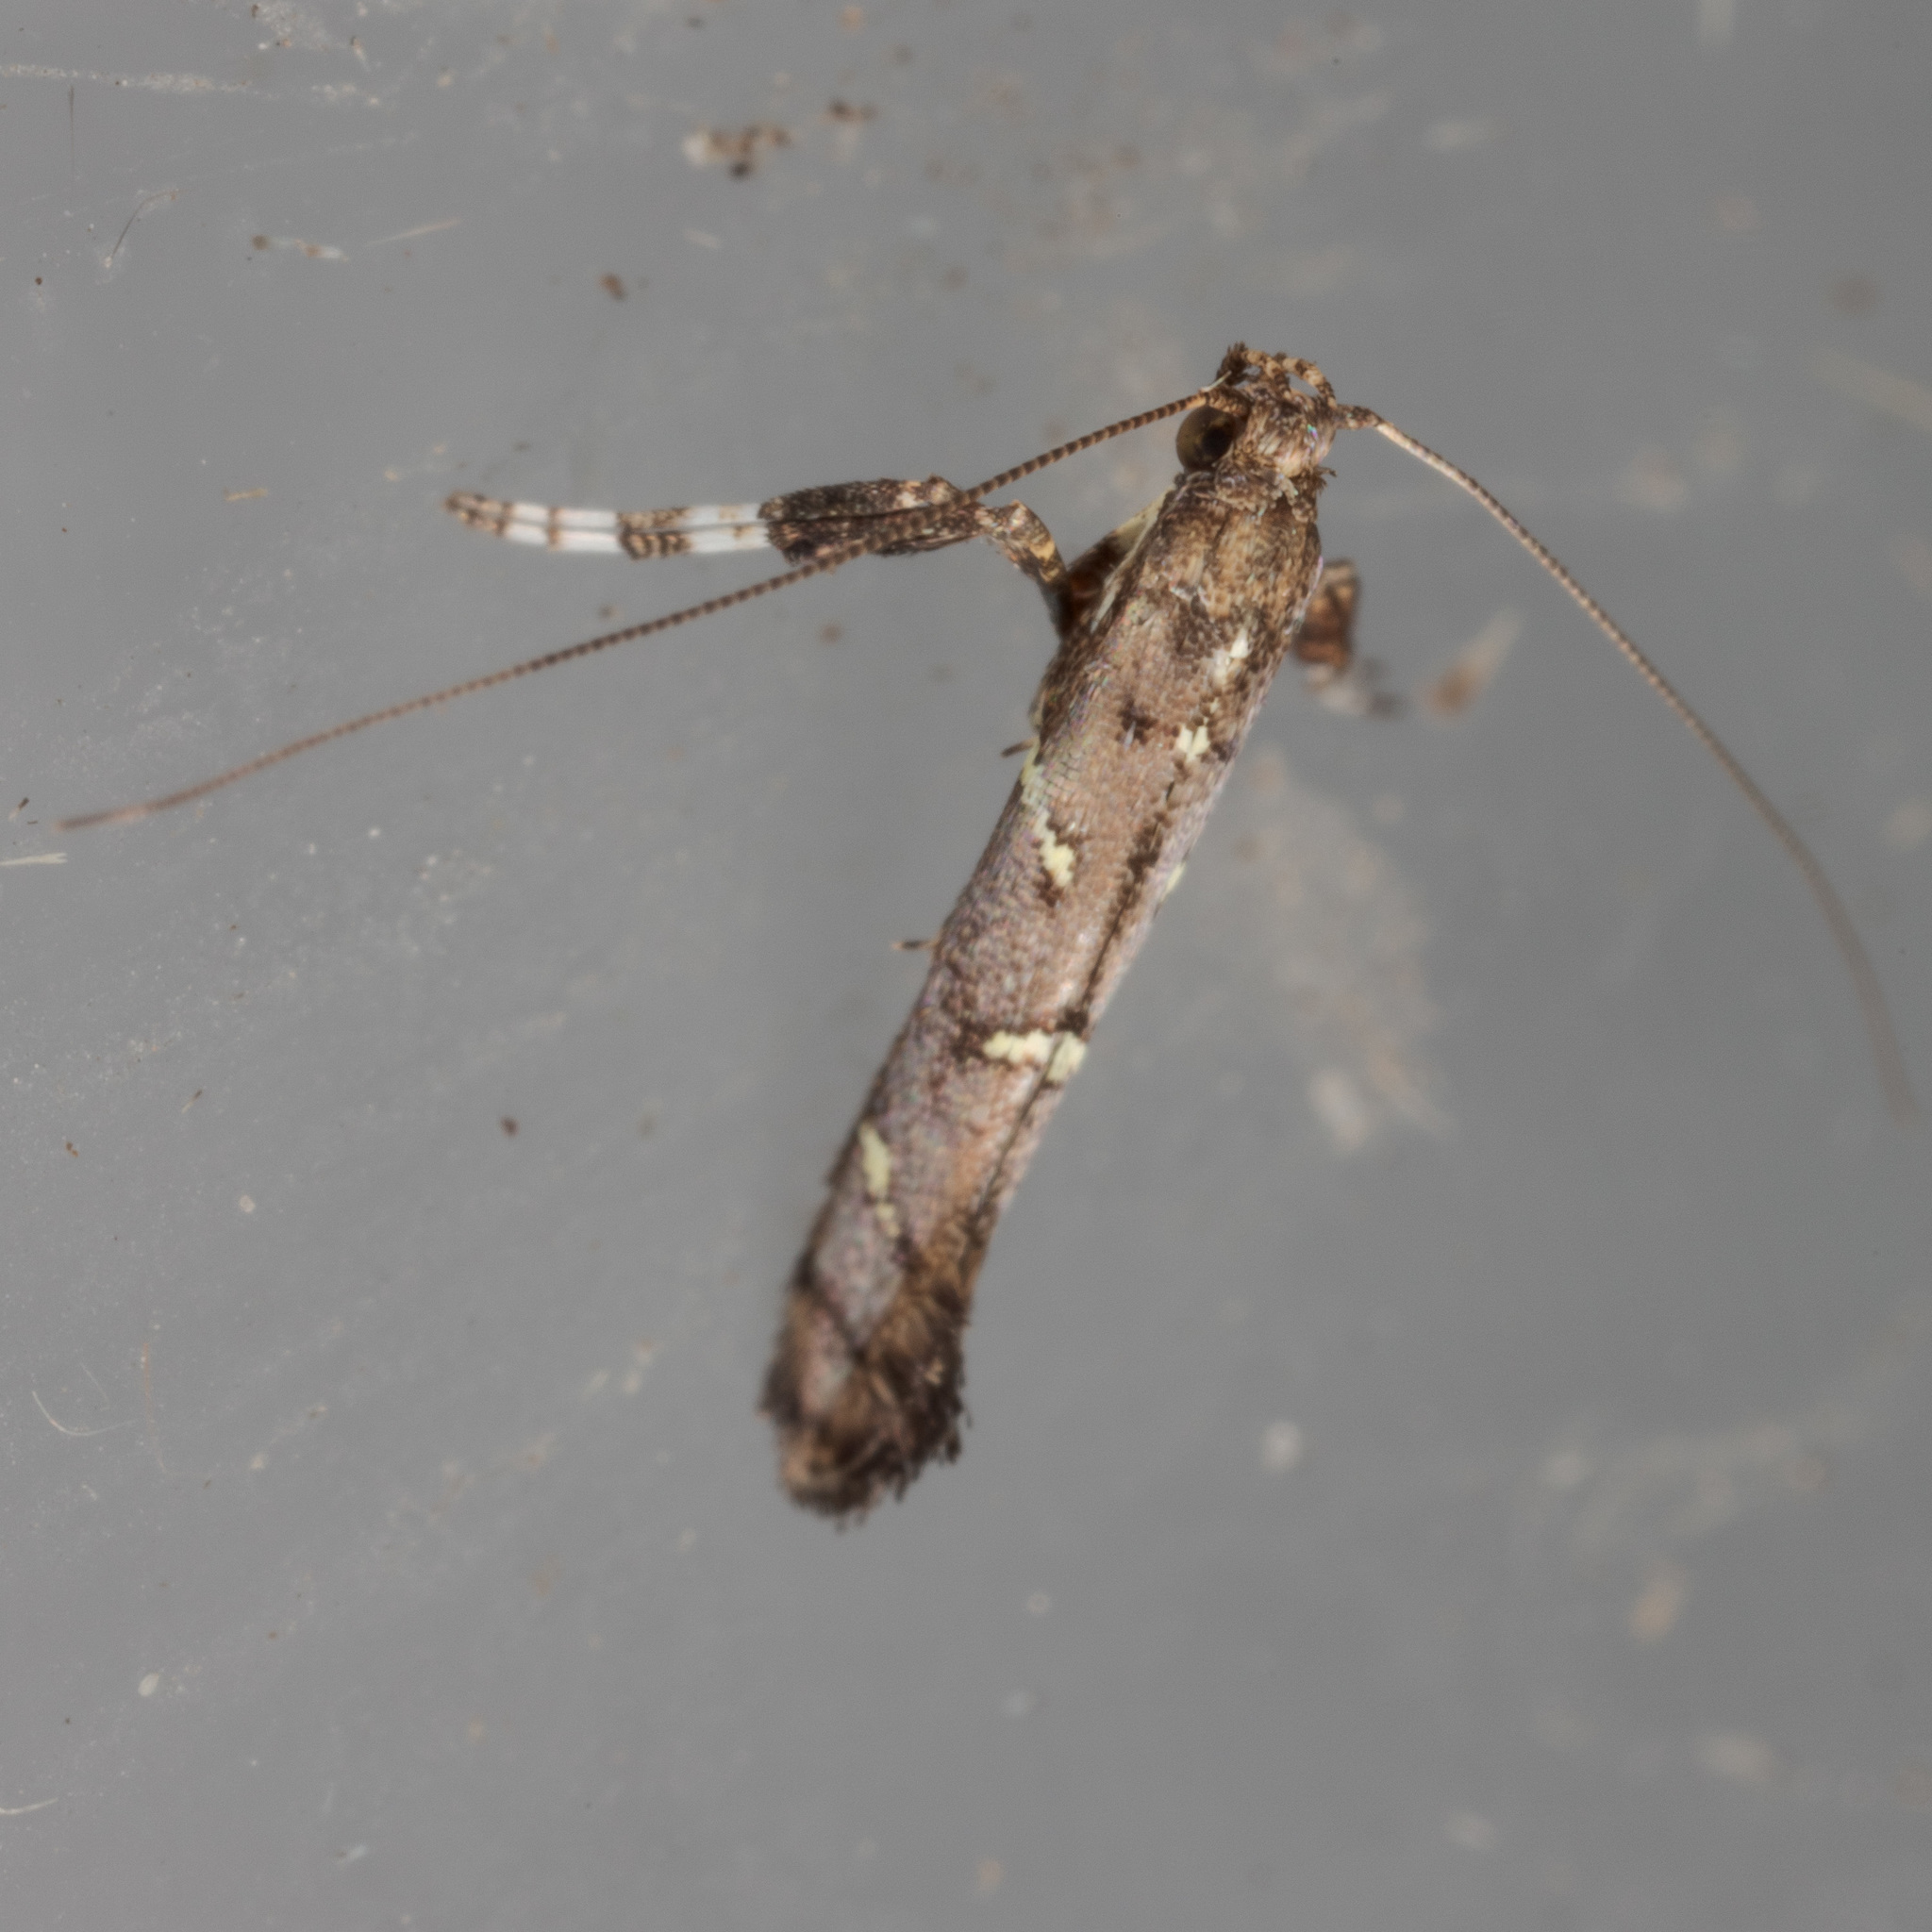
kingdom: Animalia
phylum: Arthropoda
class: Insecta
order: Lepidoptera
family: Gracillariidae
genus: Caloptilia
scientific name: Caloptilia triadicae
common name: Tallow leaf roller
